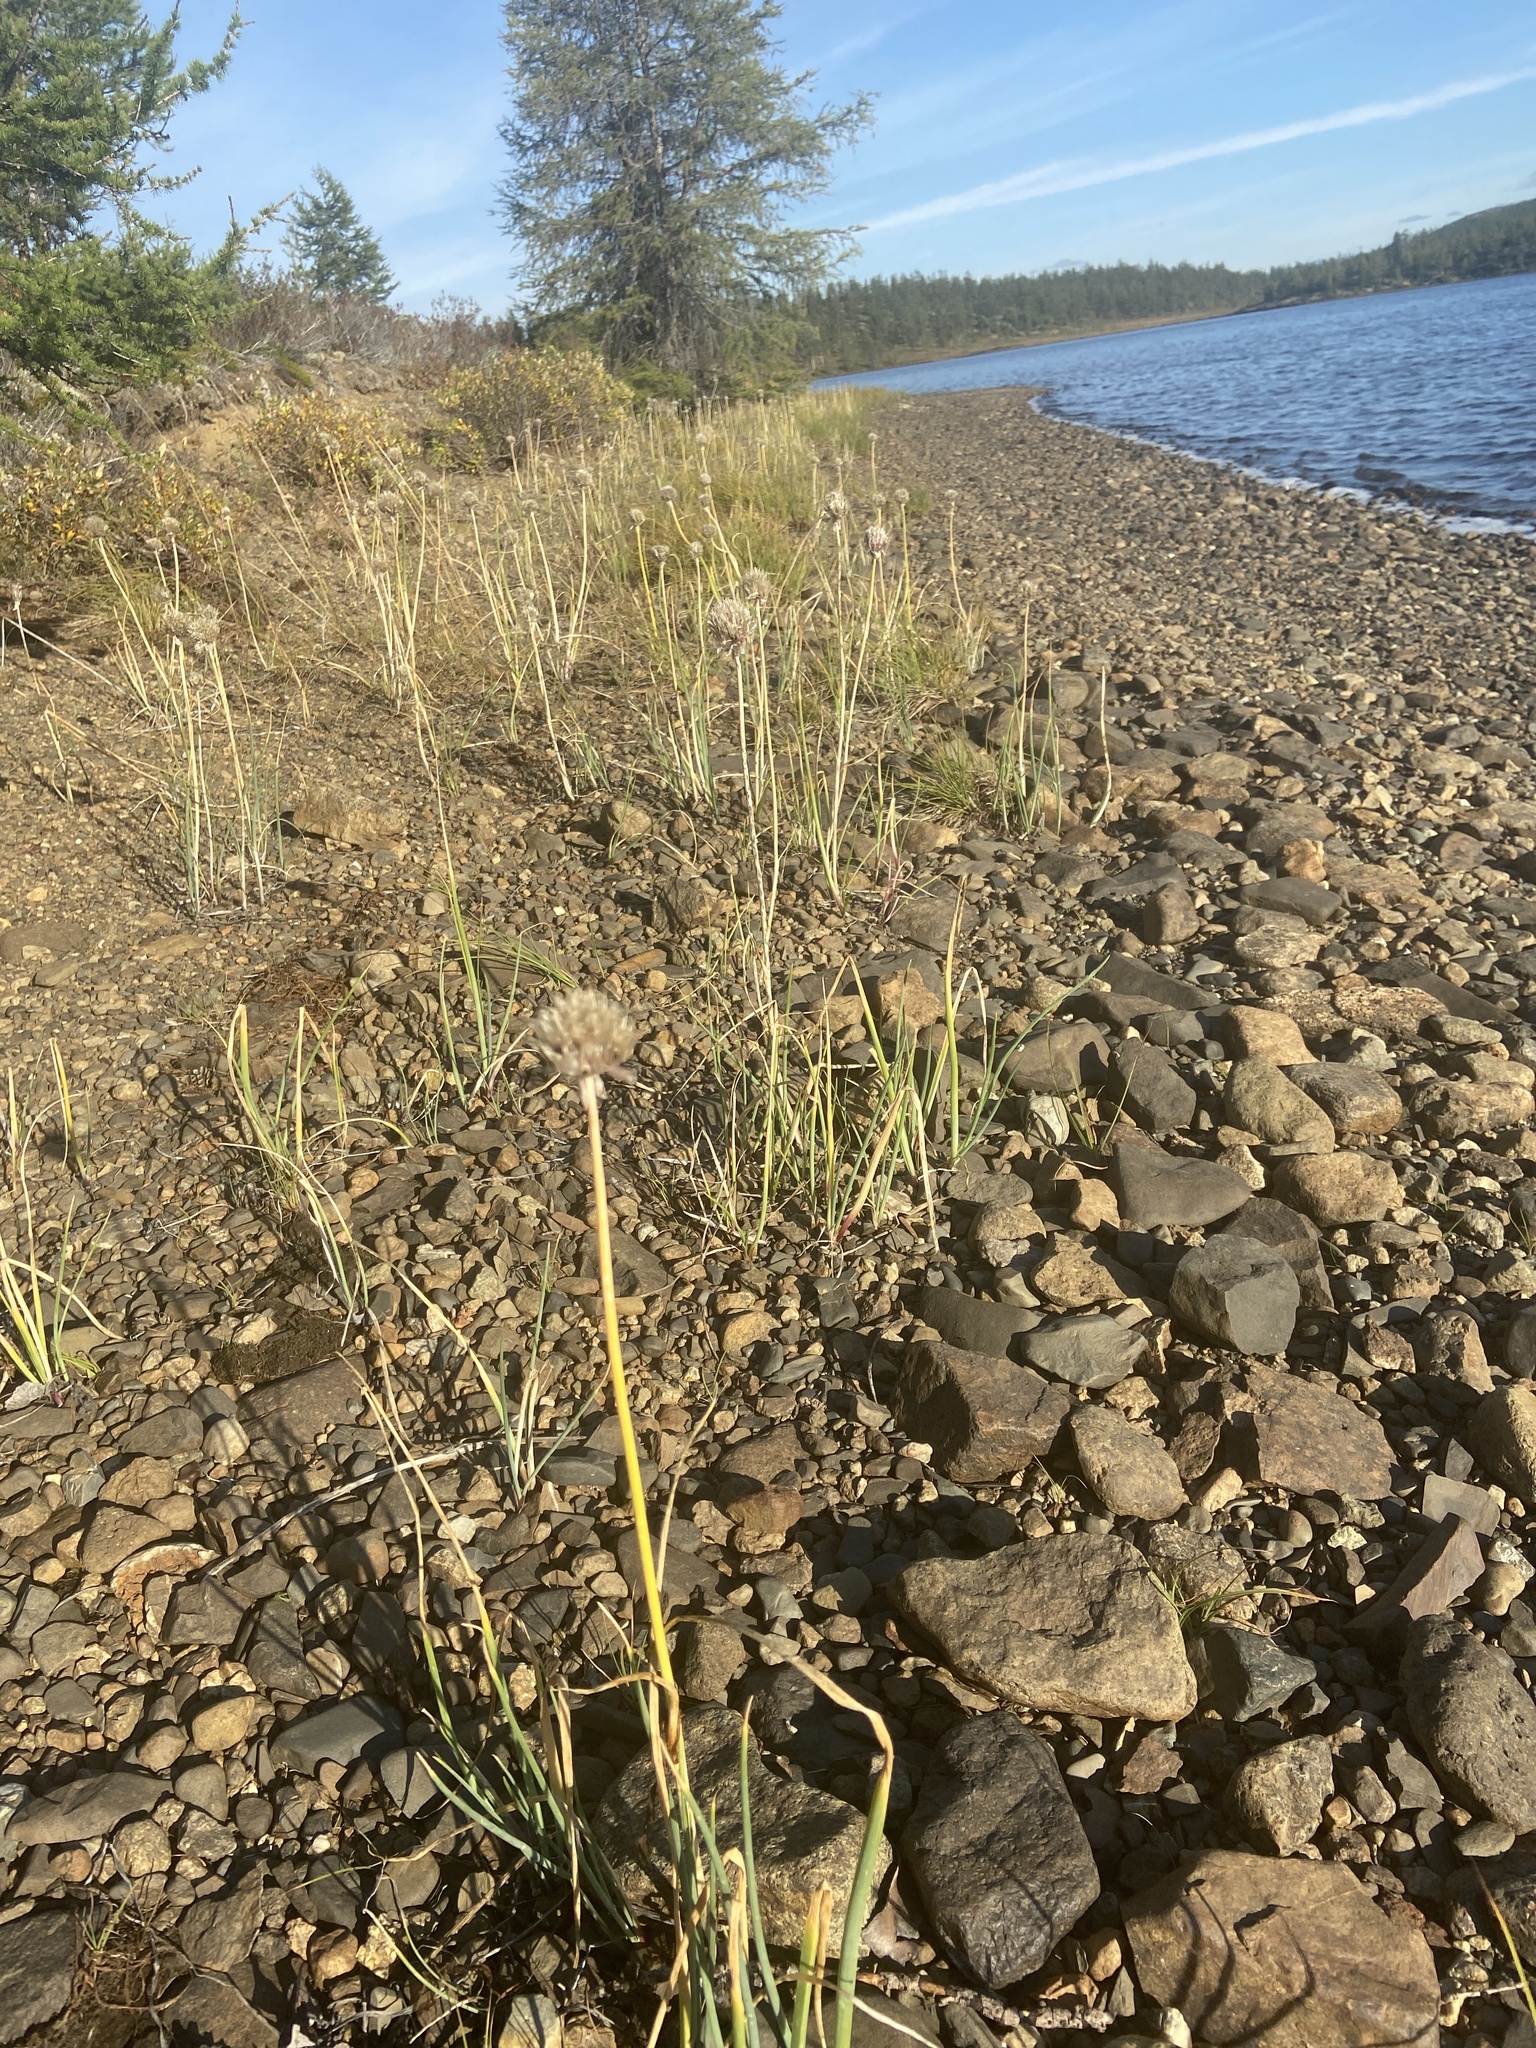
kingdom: Plantae
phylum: Tracheophyta
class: Liliopsida
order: Asparagales
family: Amaryllidaceae
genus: Allium
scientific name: Allium schoenoprasum
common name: Chives
